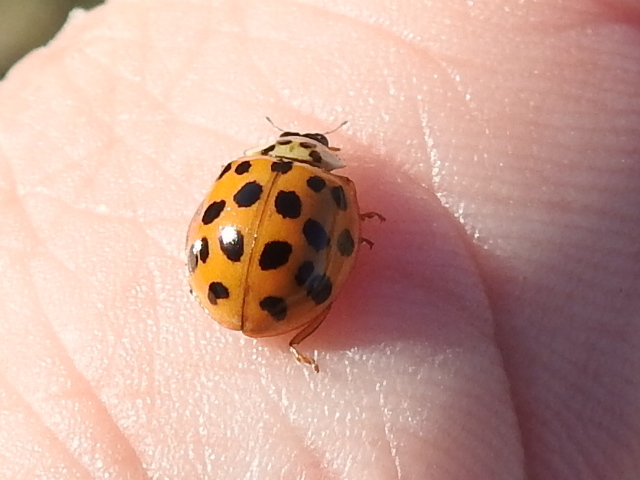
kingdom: Animalia
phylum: Arthropoda
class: Insecta
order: Coleoptera
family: Coccinellidae
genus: Harmonia
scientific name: Harmonia axyridis
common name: Harlequin ladybird
